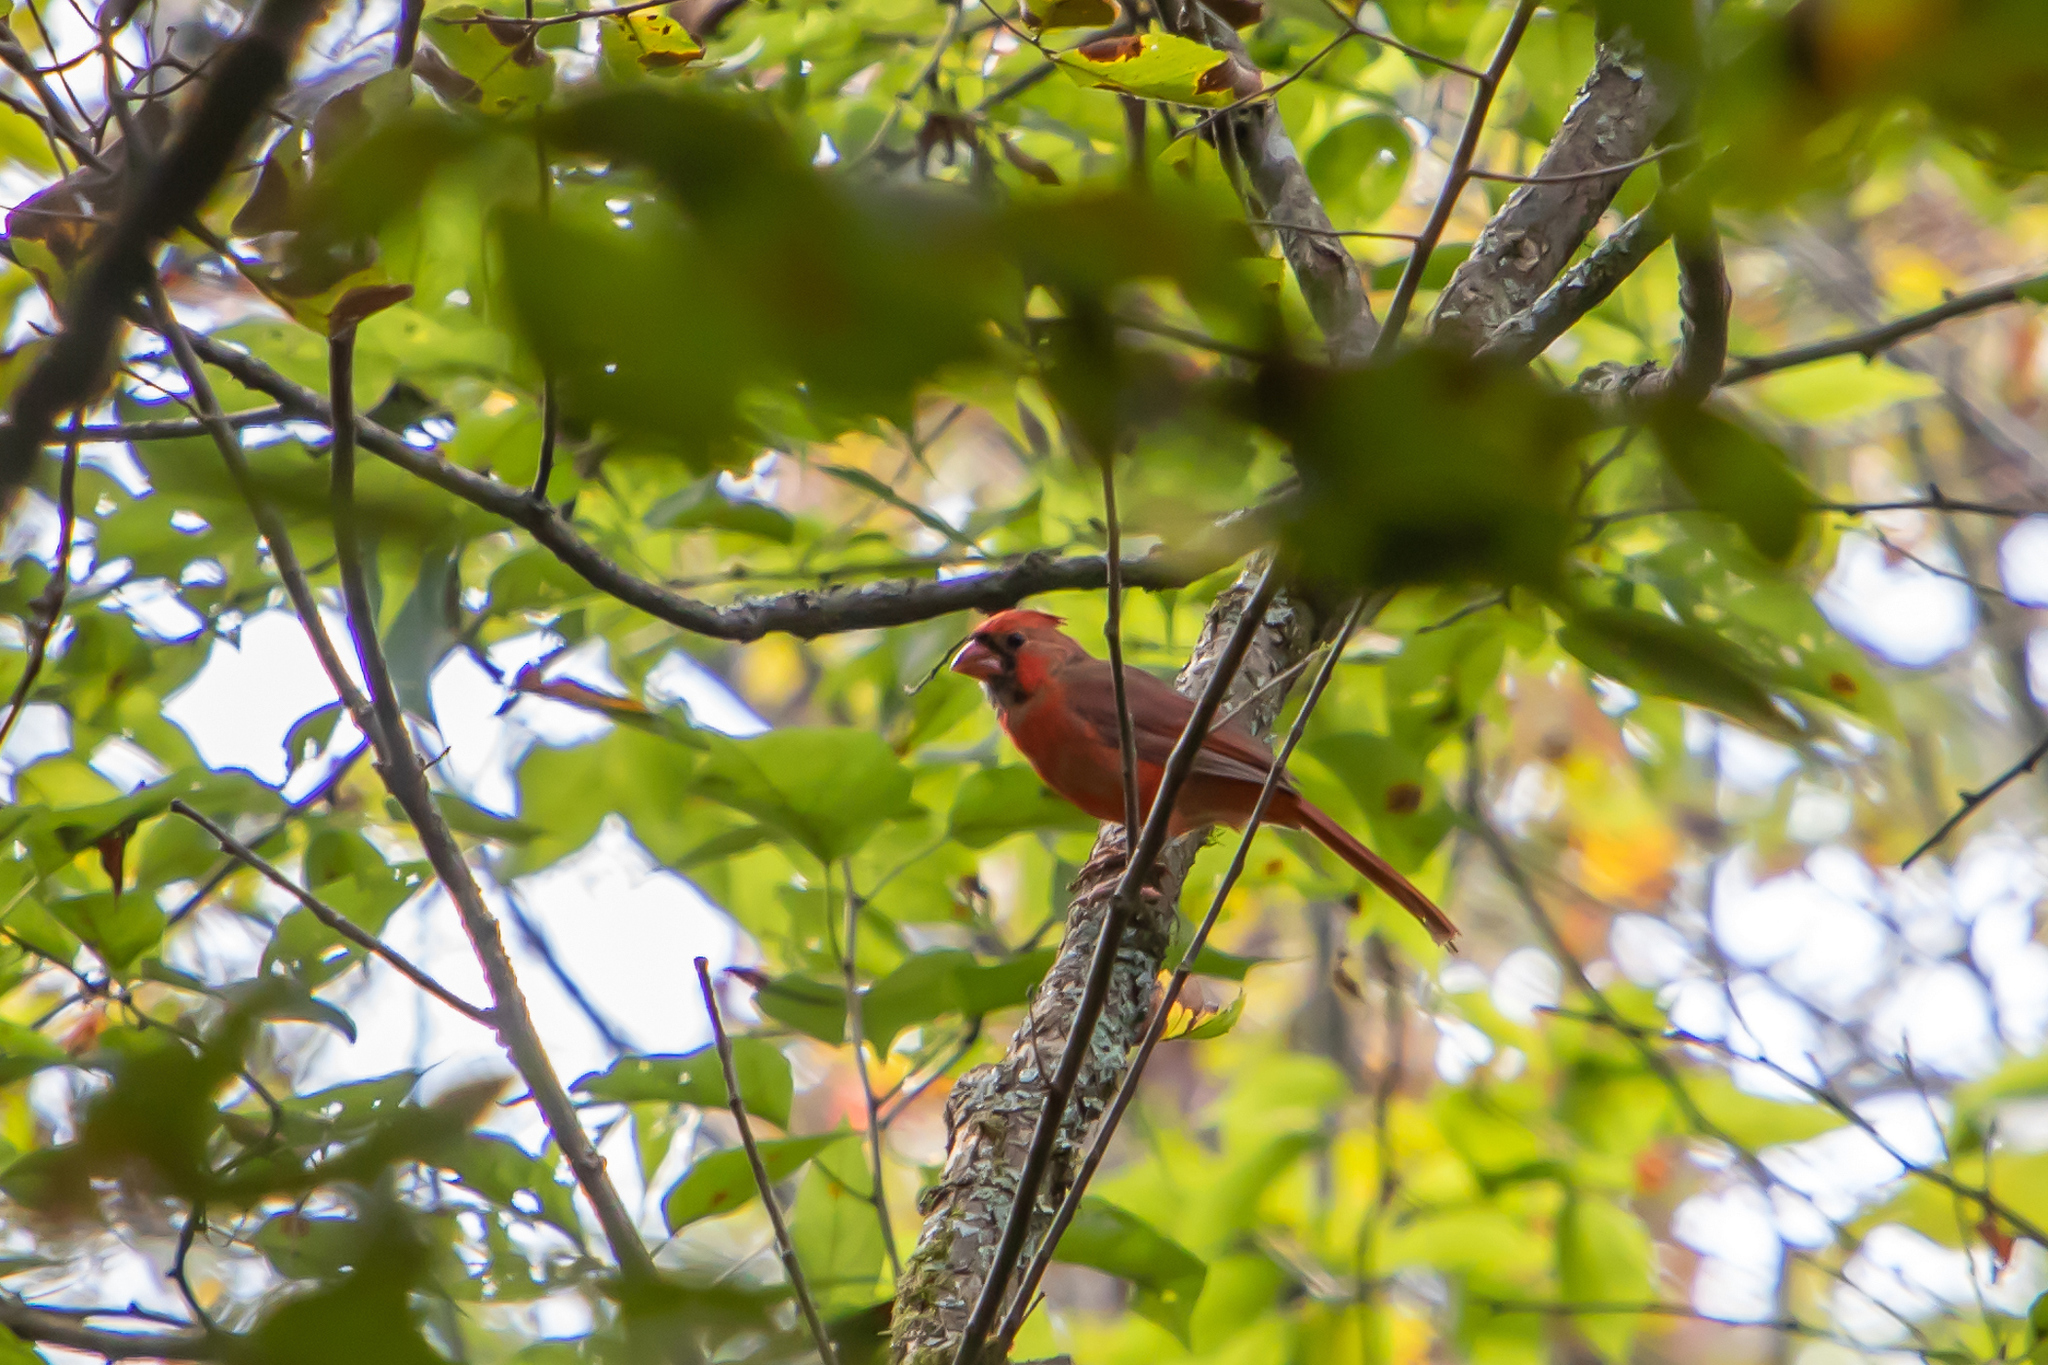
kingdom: Animalia
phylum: Chordata
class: Aves
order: Passeriformes
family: Cardinalidae
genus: Cardinalis
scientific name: Cardinalis cardinalis
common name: Northern cardinal
